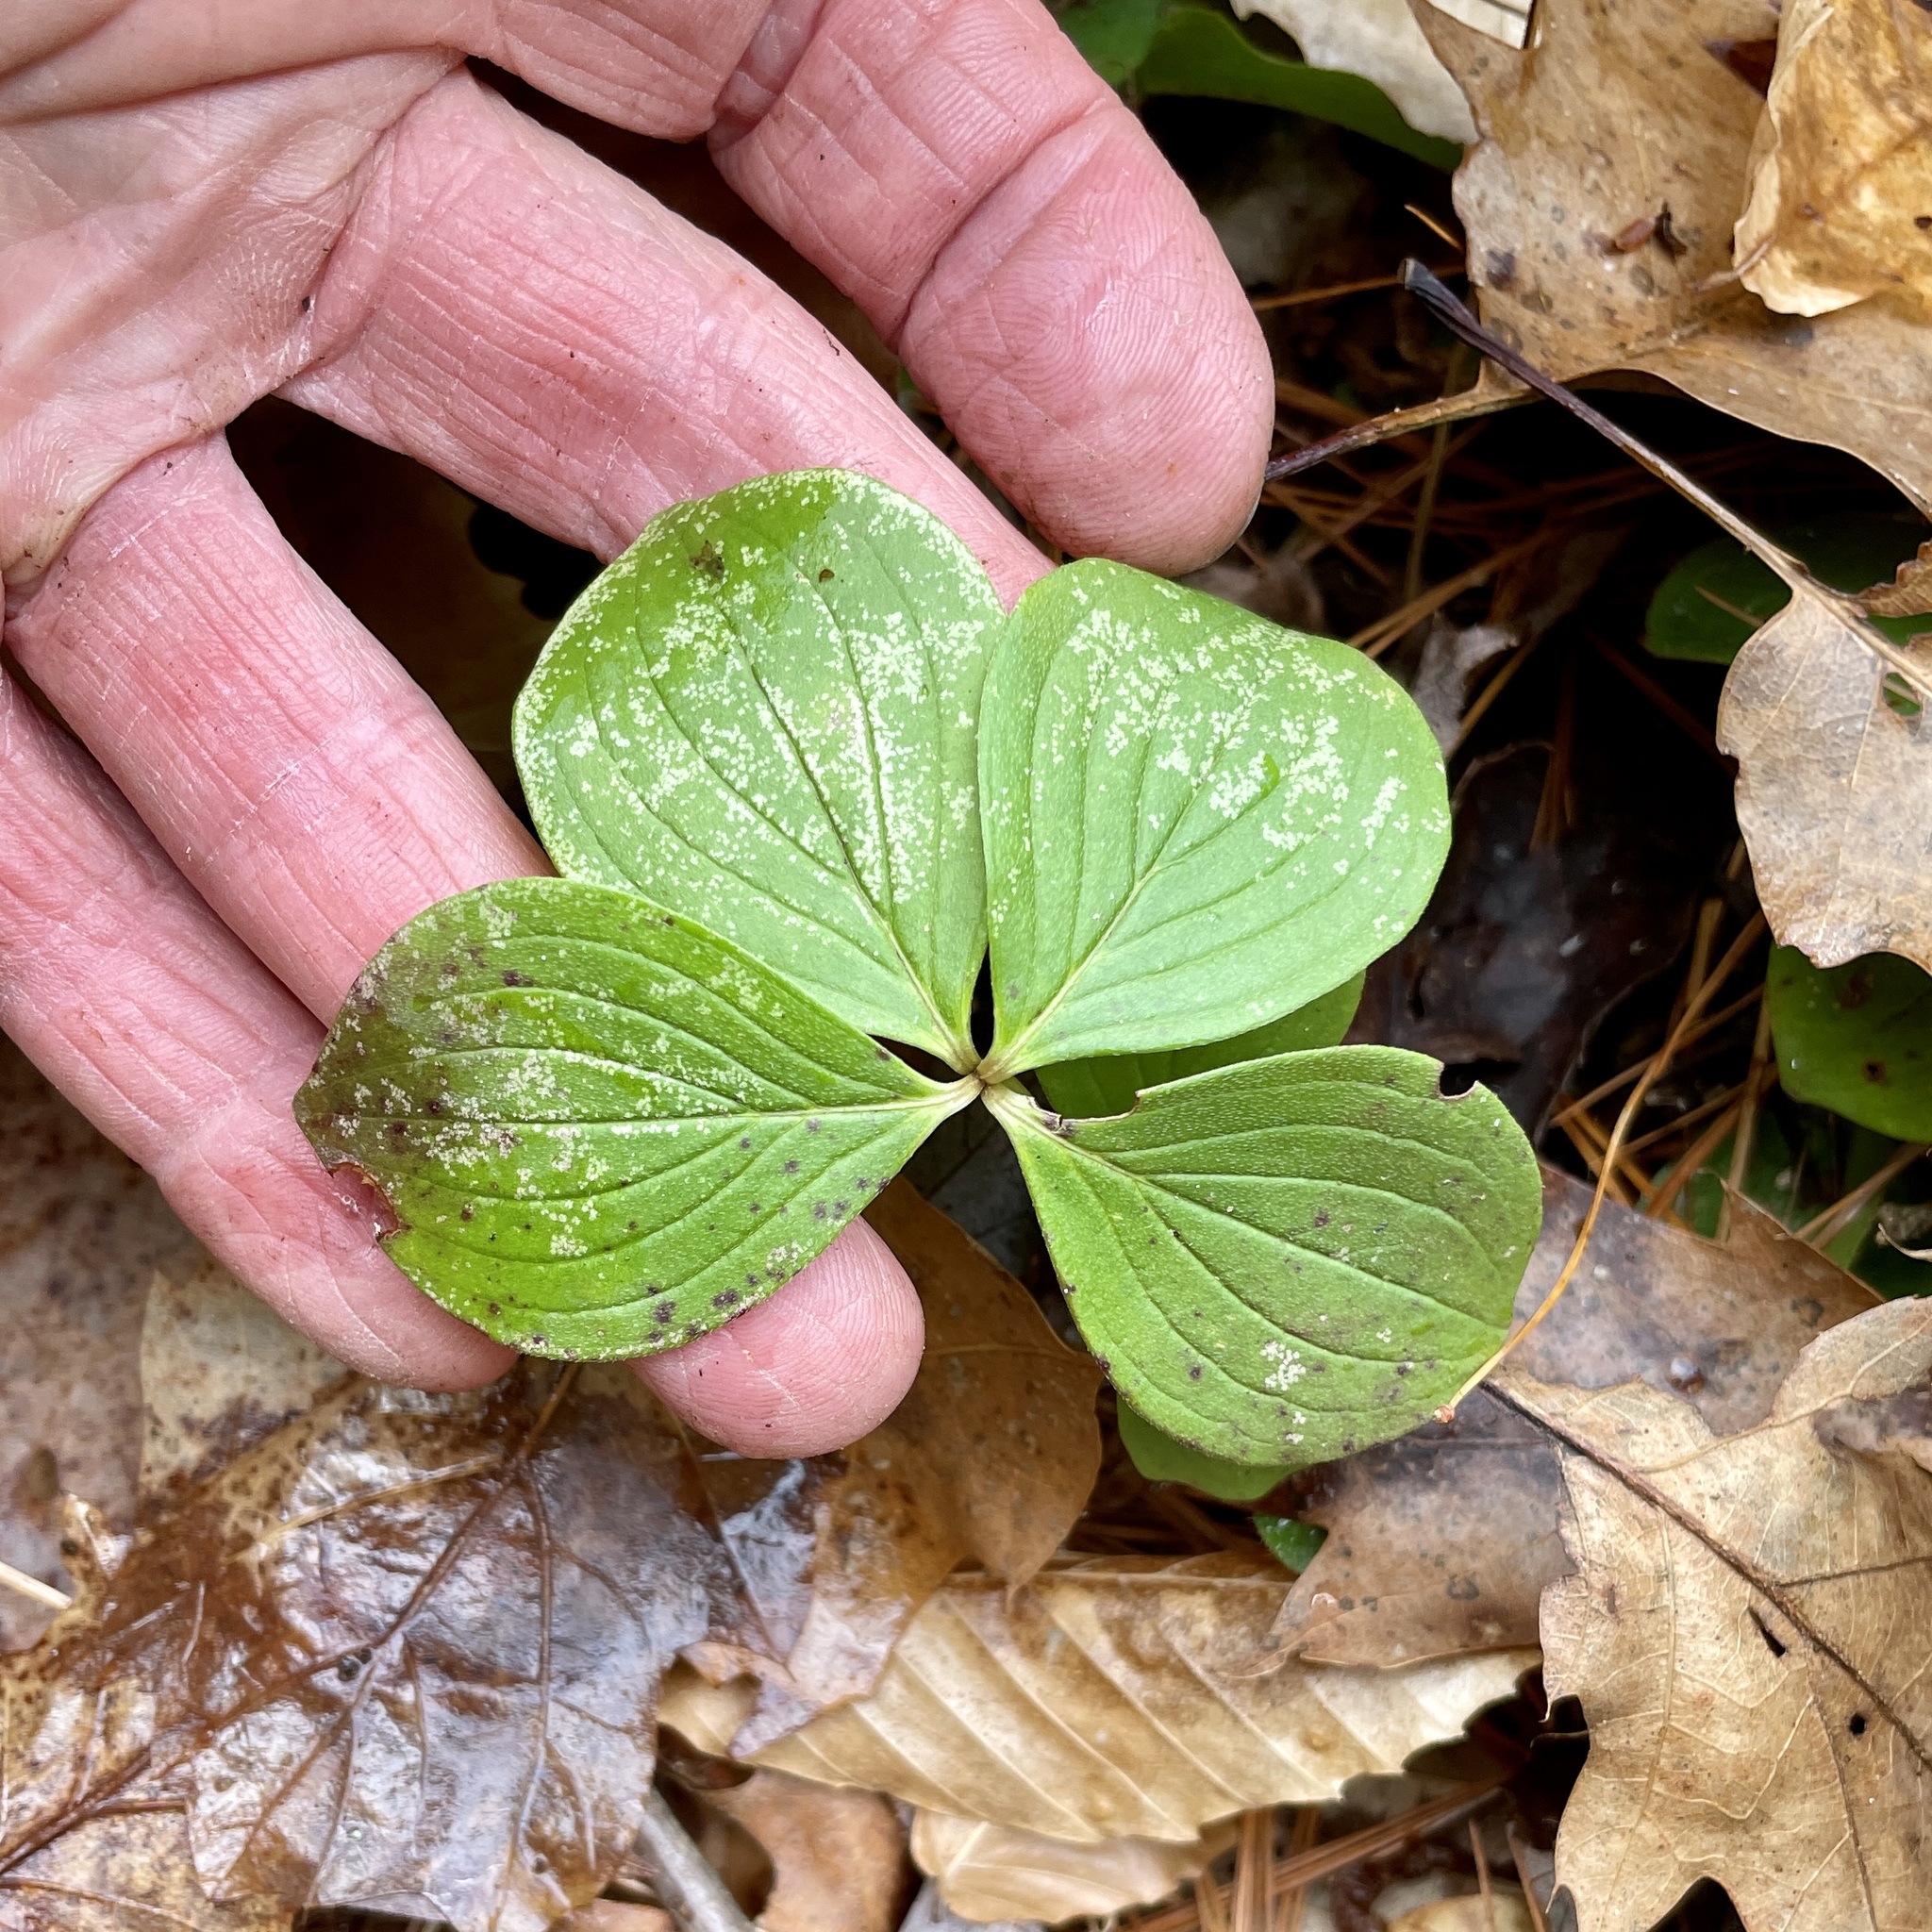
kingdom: Plantae
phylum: Tracheophyta
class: Magnoliopsida
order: Cornales
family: Cornaceae
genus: Cornus
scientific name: Cornus canadensis
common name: Creeping dogwood
